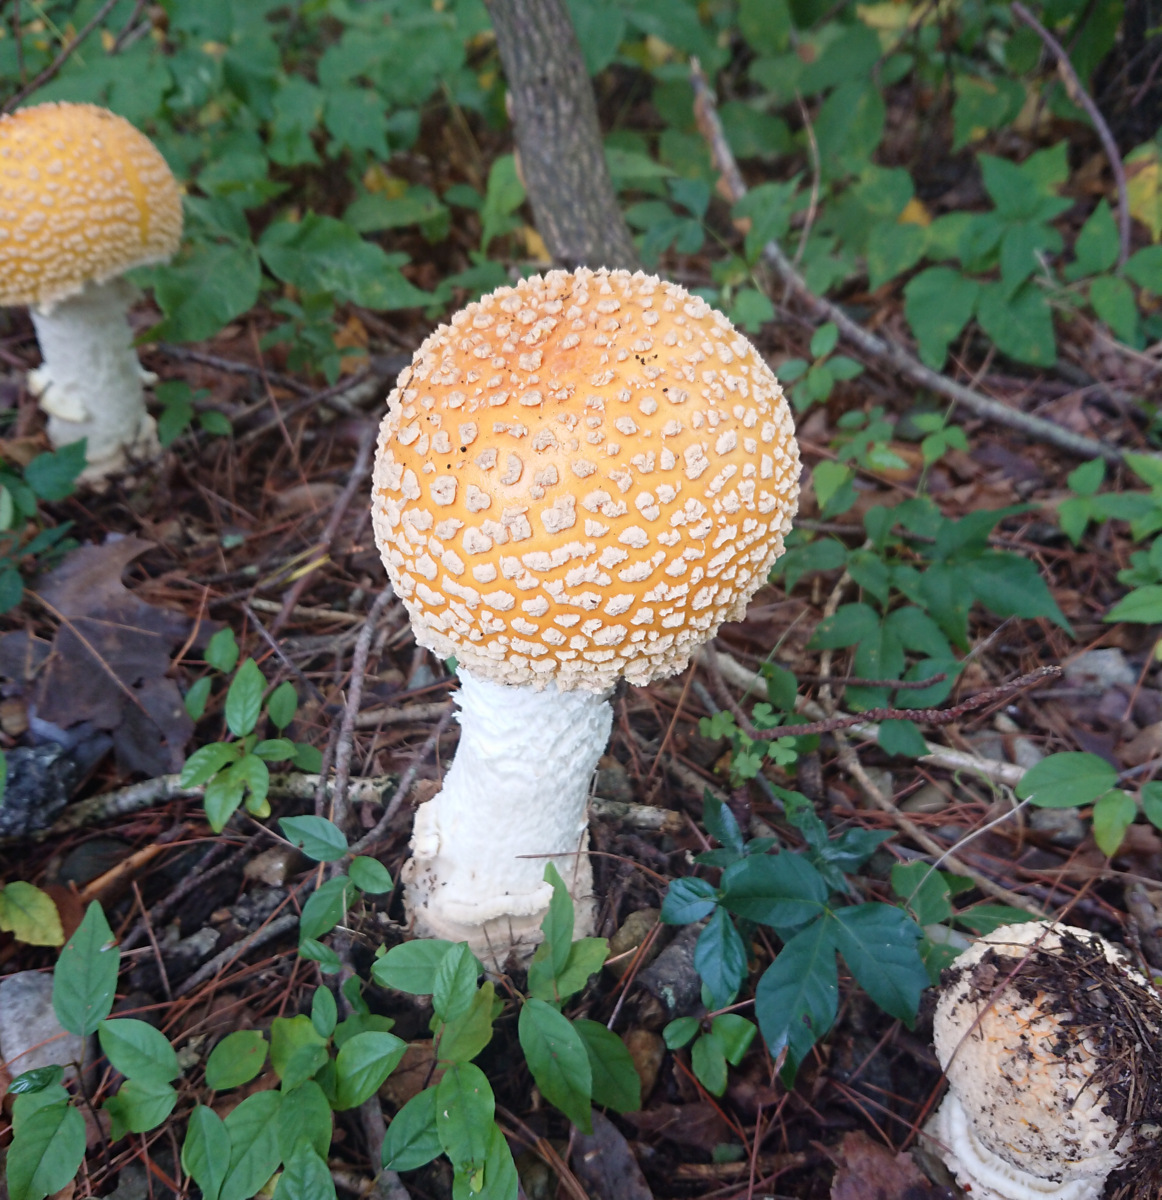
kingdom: Fungi
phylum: Basidiomycota
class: Agaricomycetes
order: Agaricales
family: Amanitaceae
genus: Amanita
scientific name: Amanita muscaria
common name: Fly agaric
